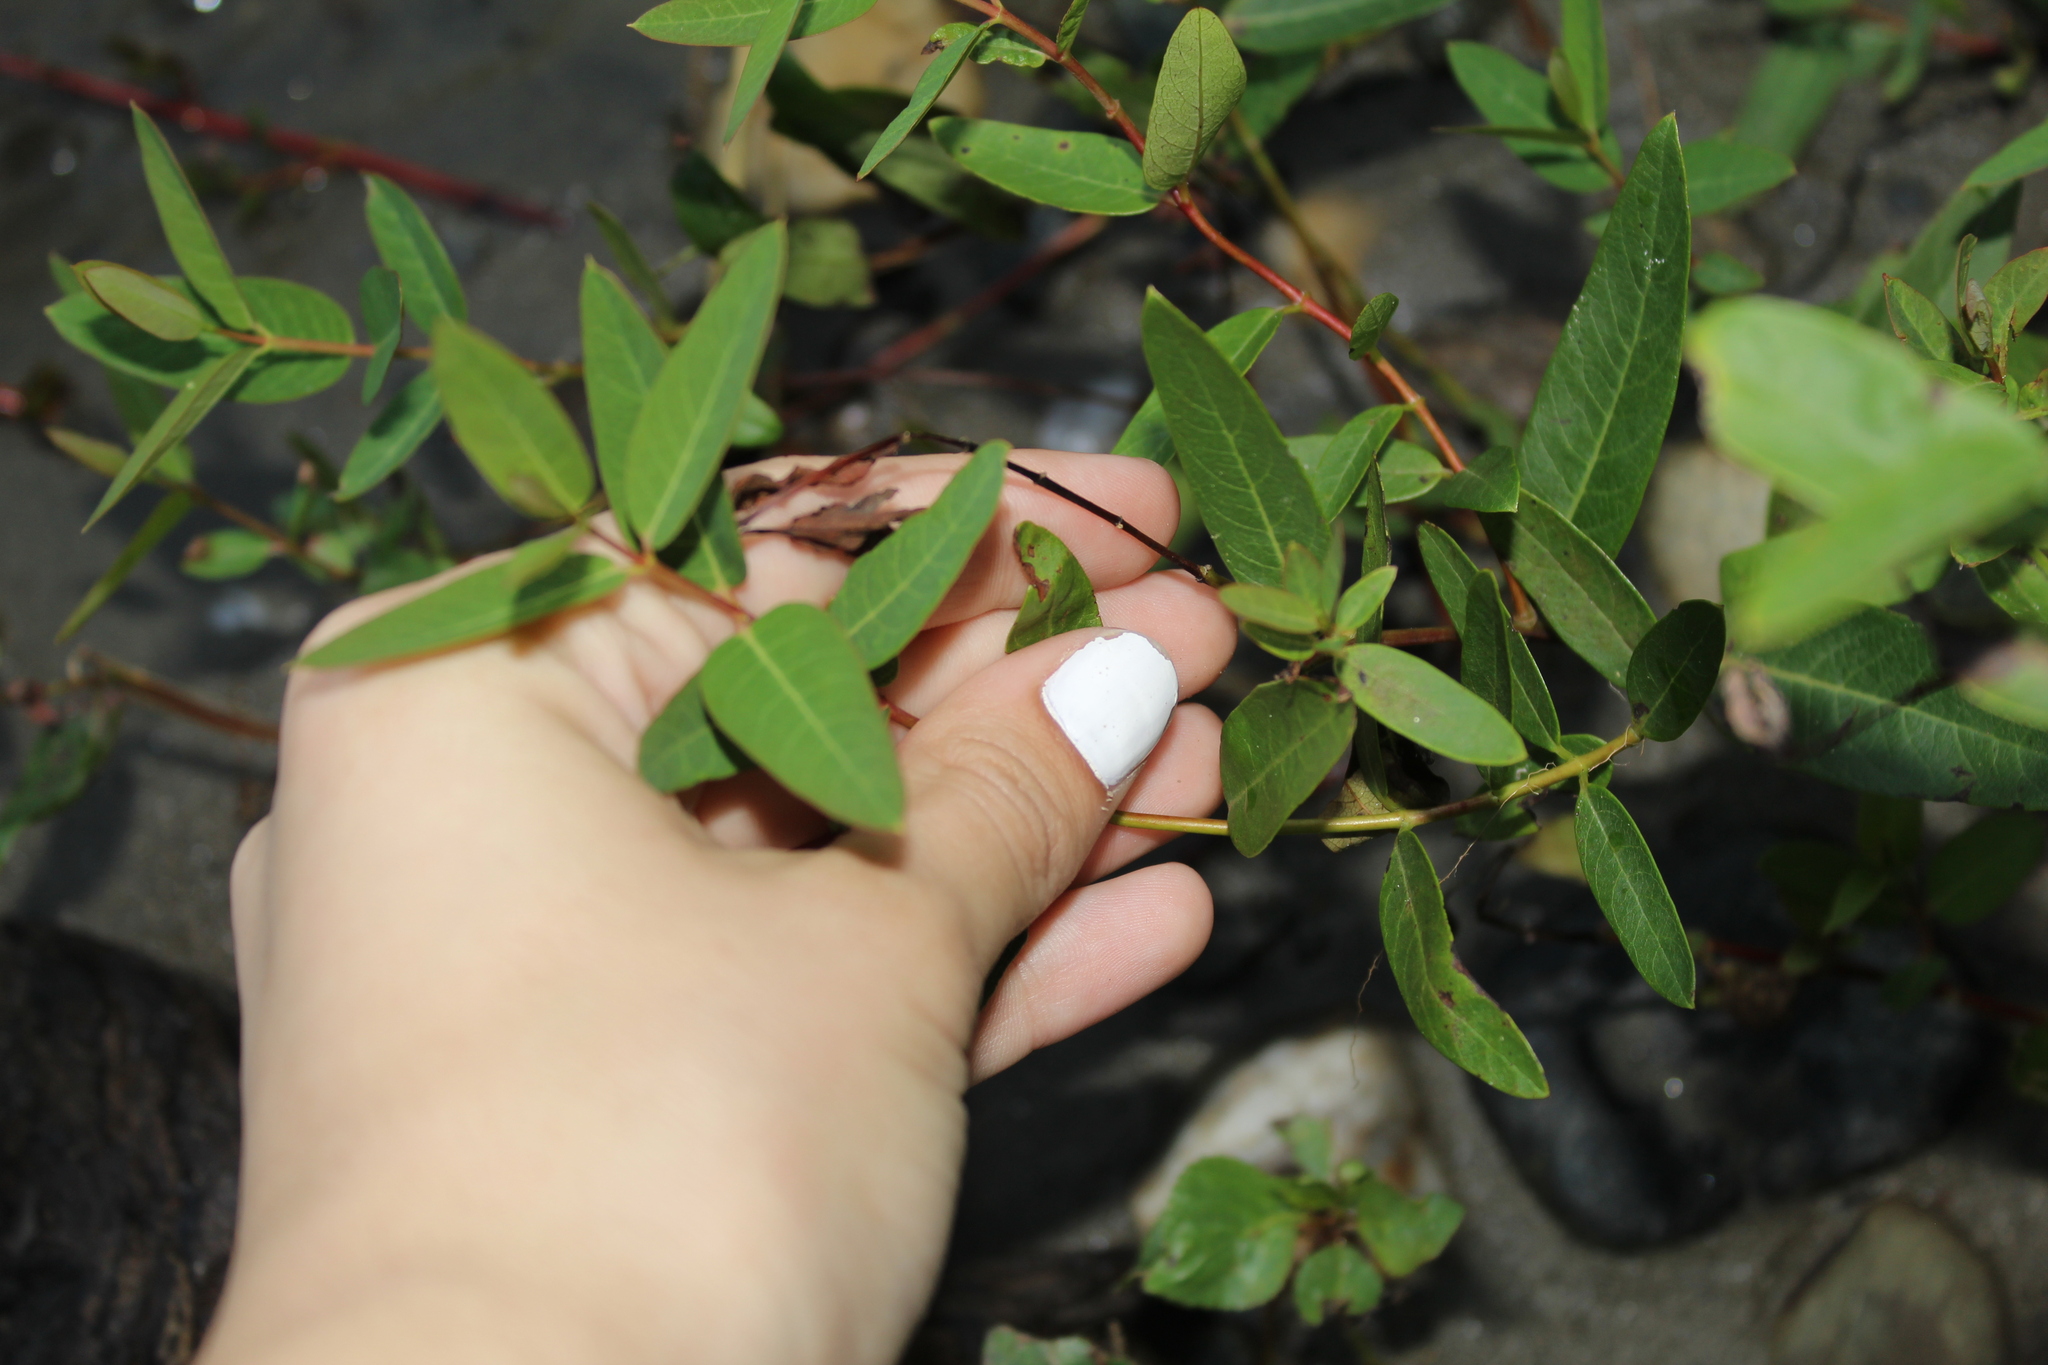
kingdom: Plantae
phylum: Tracheophyta
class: Magnoliopsida
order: Gentianales
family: Apocynaceae
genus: Apocynum
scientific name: Apocynum cannabinum
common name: Hemp dogbane
